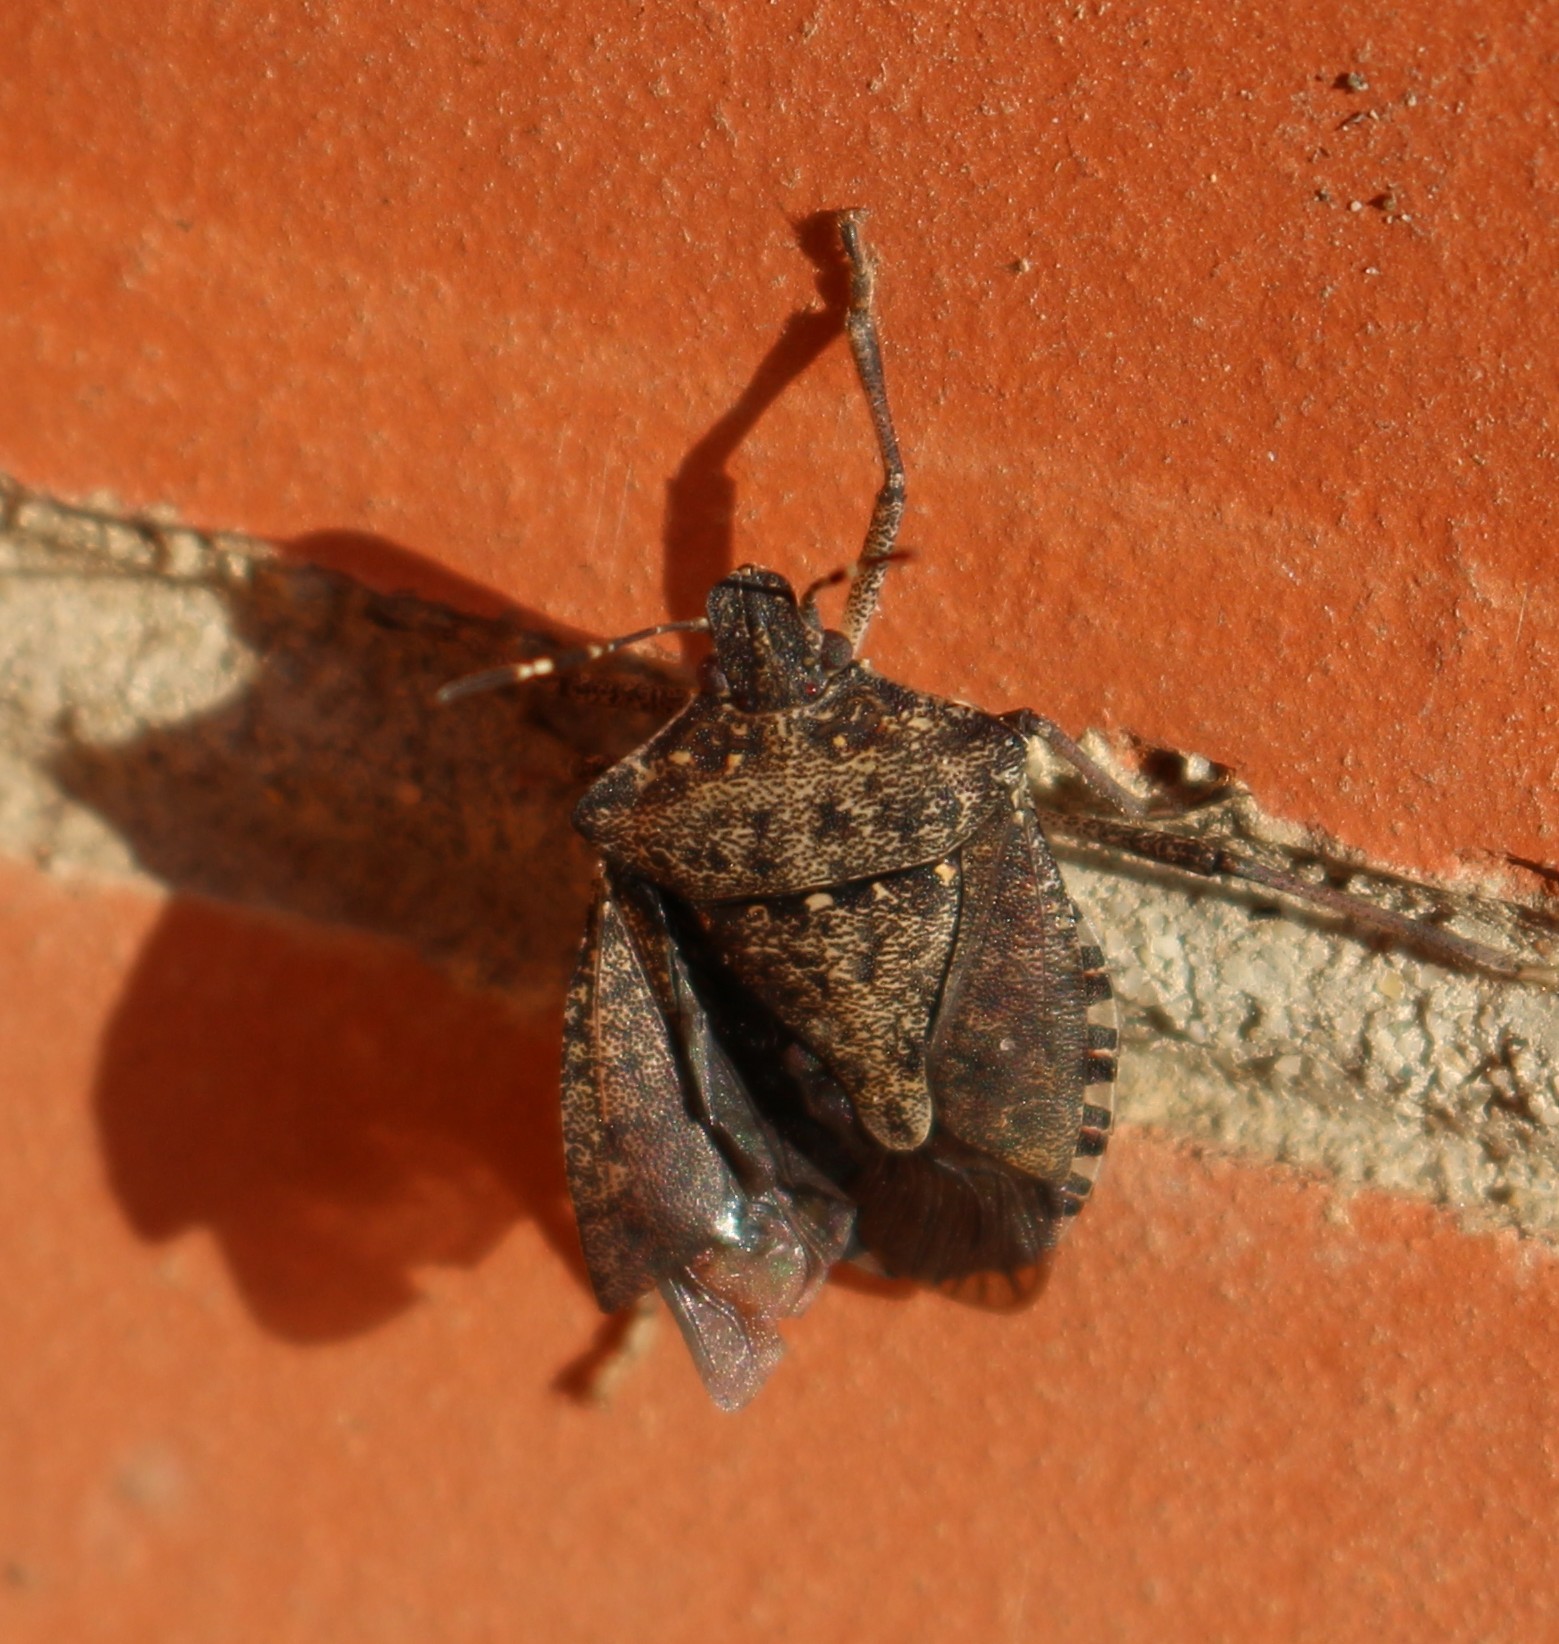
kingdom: Animalia
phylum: Arthropoda
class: Insecta
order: Hemiptera
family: Pentatomidae
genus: Halyomorpha
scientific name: Halyomorpha halys
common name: Brown marmorated stink bug
